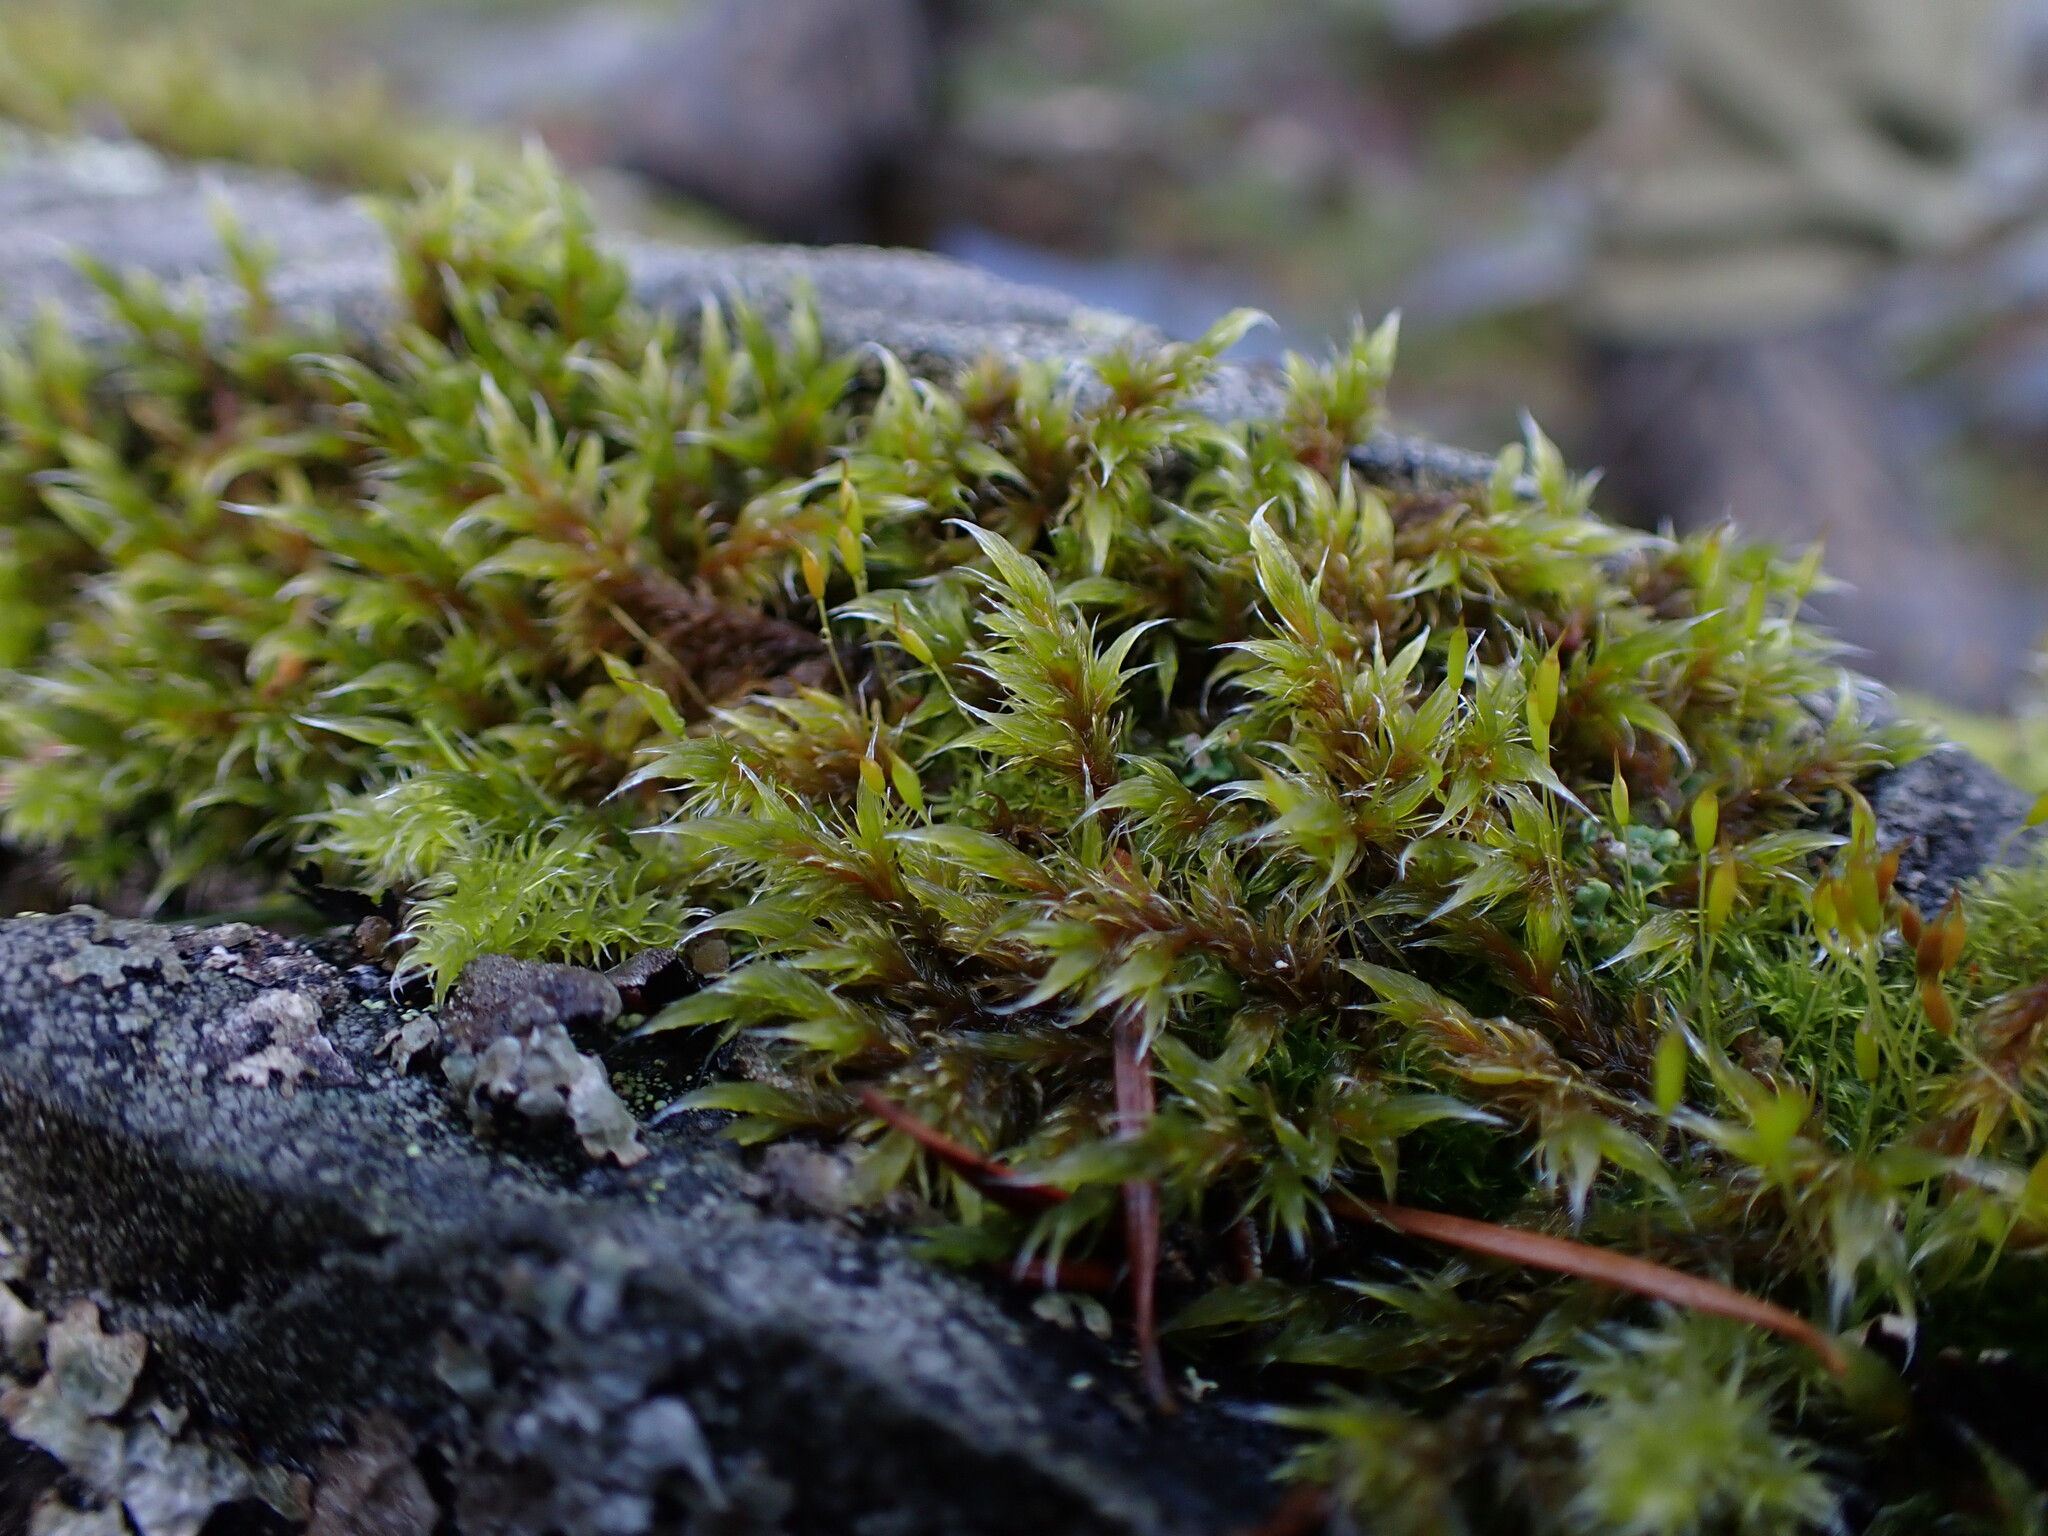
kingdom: Plantae
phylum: Bryophyta
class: Bryopsida
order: Grimmiales
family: Grimmiaceae
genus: Racomitrium
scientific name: Racomitrium lanuginosum
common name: Hoary rock moss
